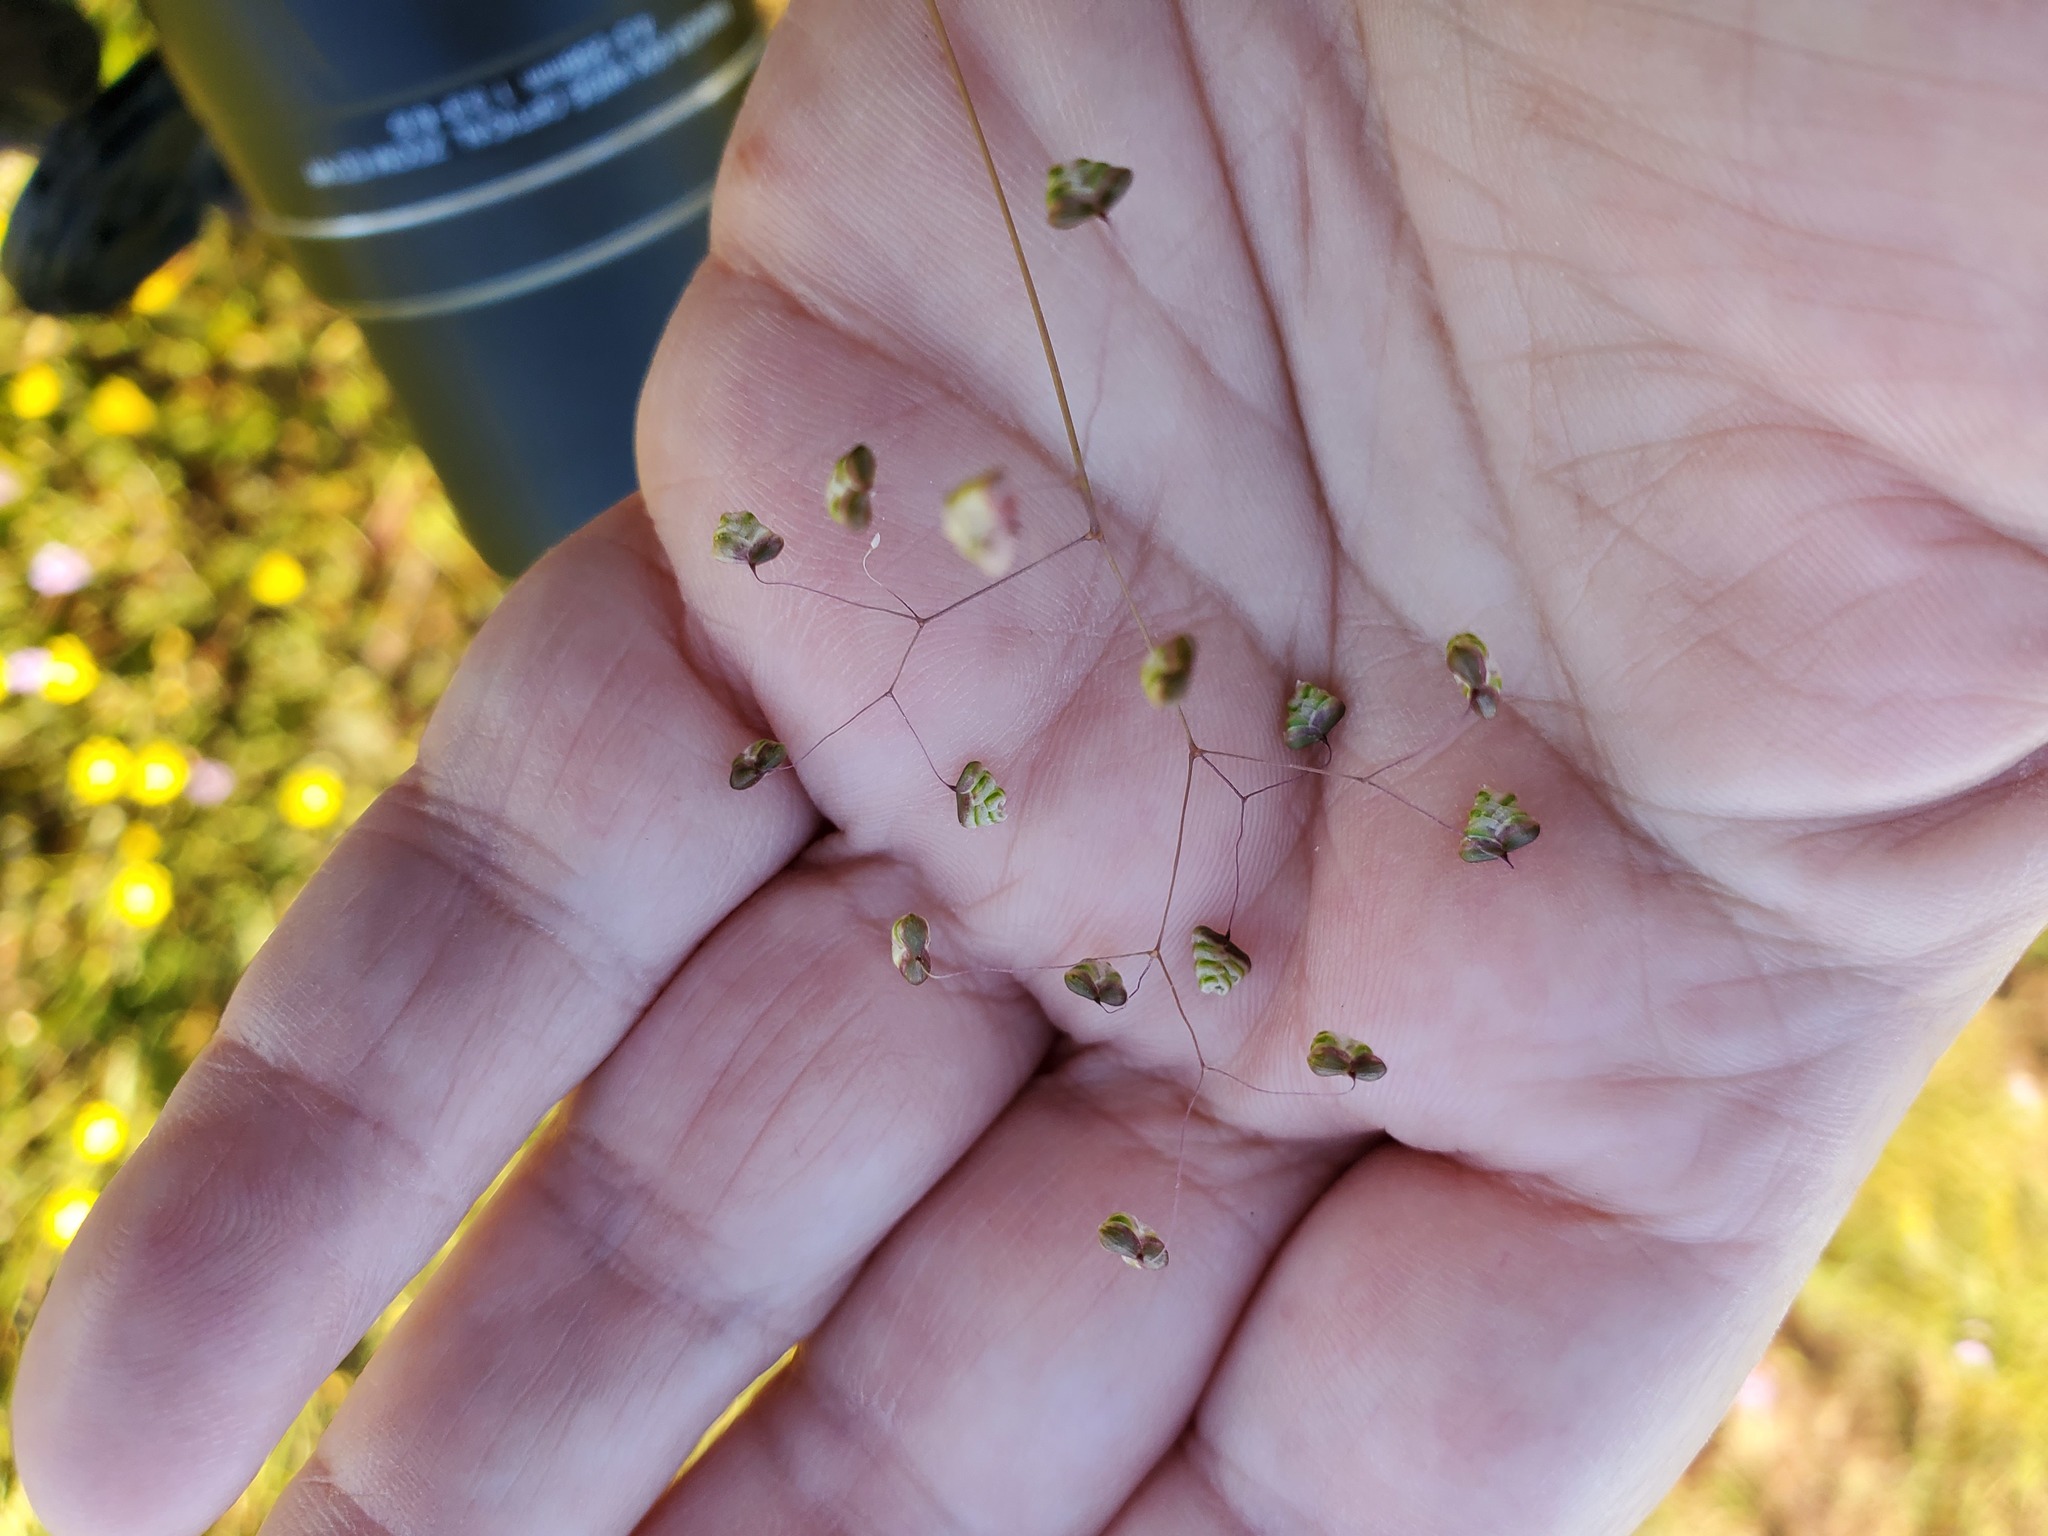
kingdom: Plantae
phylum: Tracheophyta
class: Liliopsida
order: Poales
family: Poaceae
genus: Briza
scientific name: Briza minor
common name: Lesser quaking-grass
